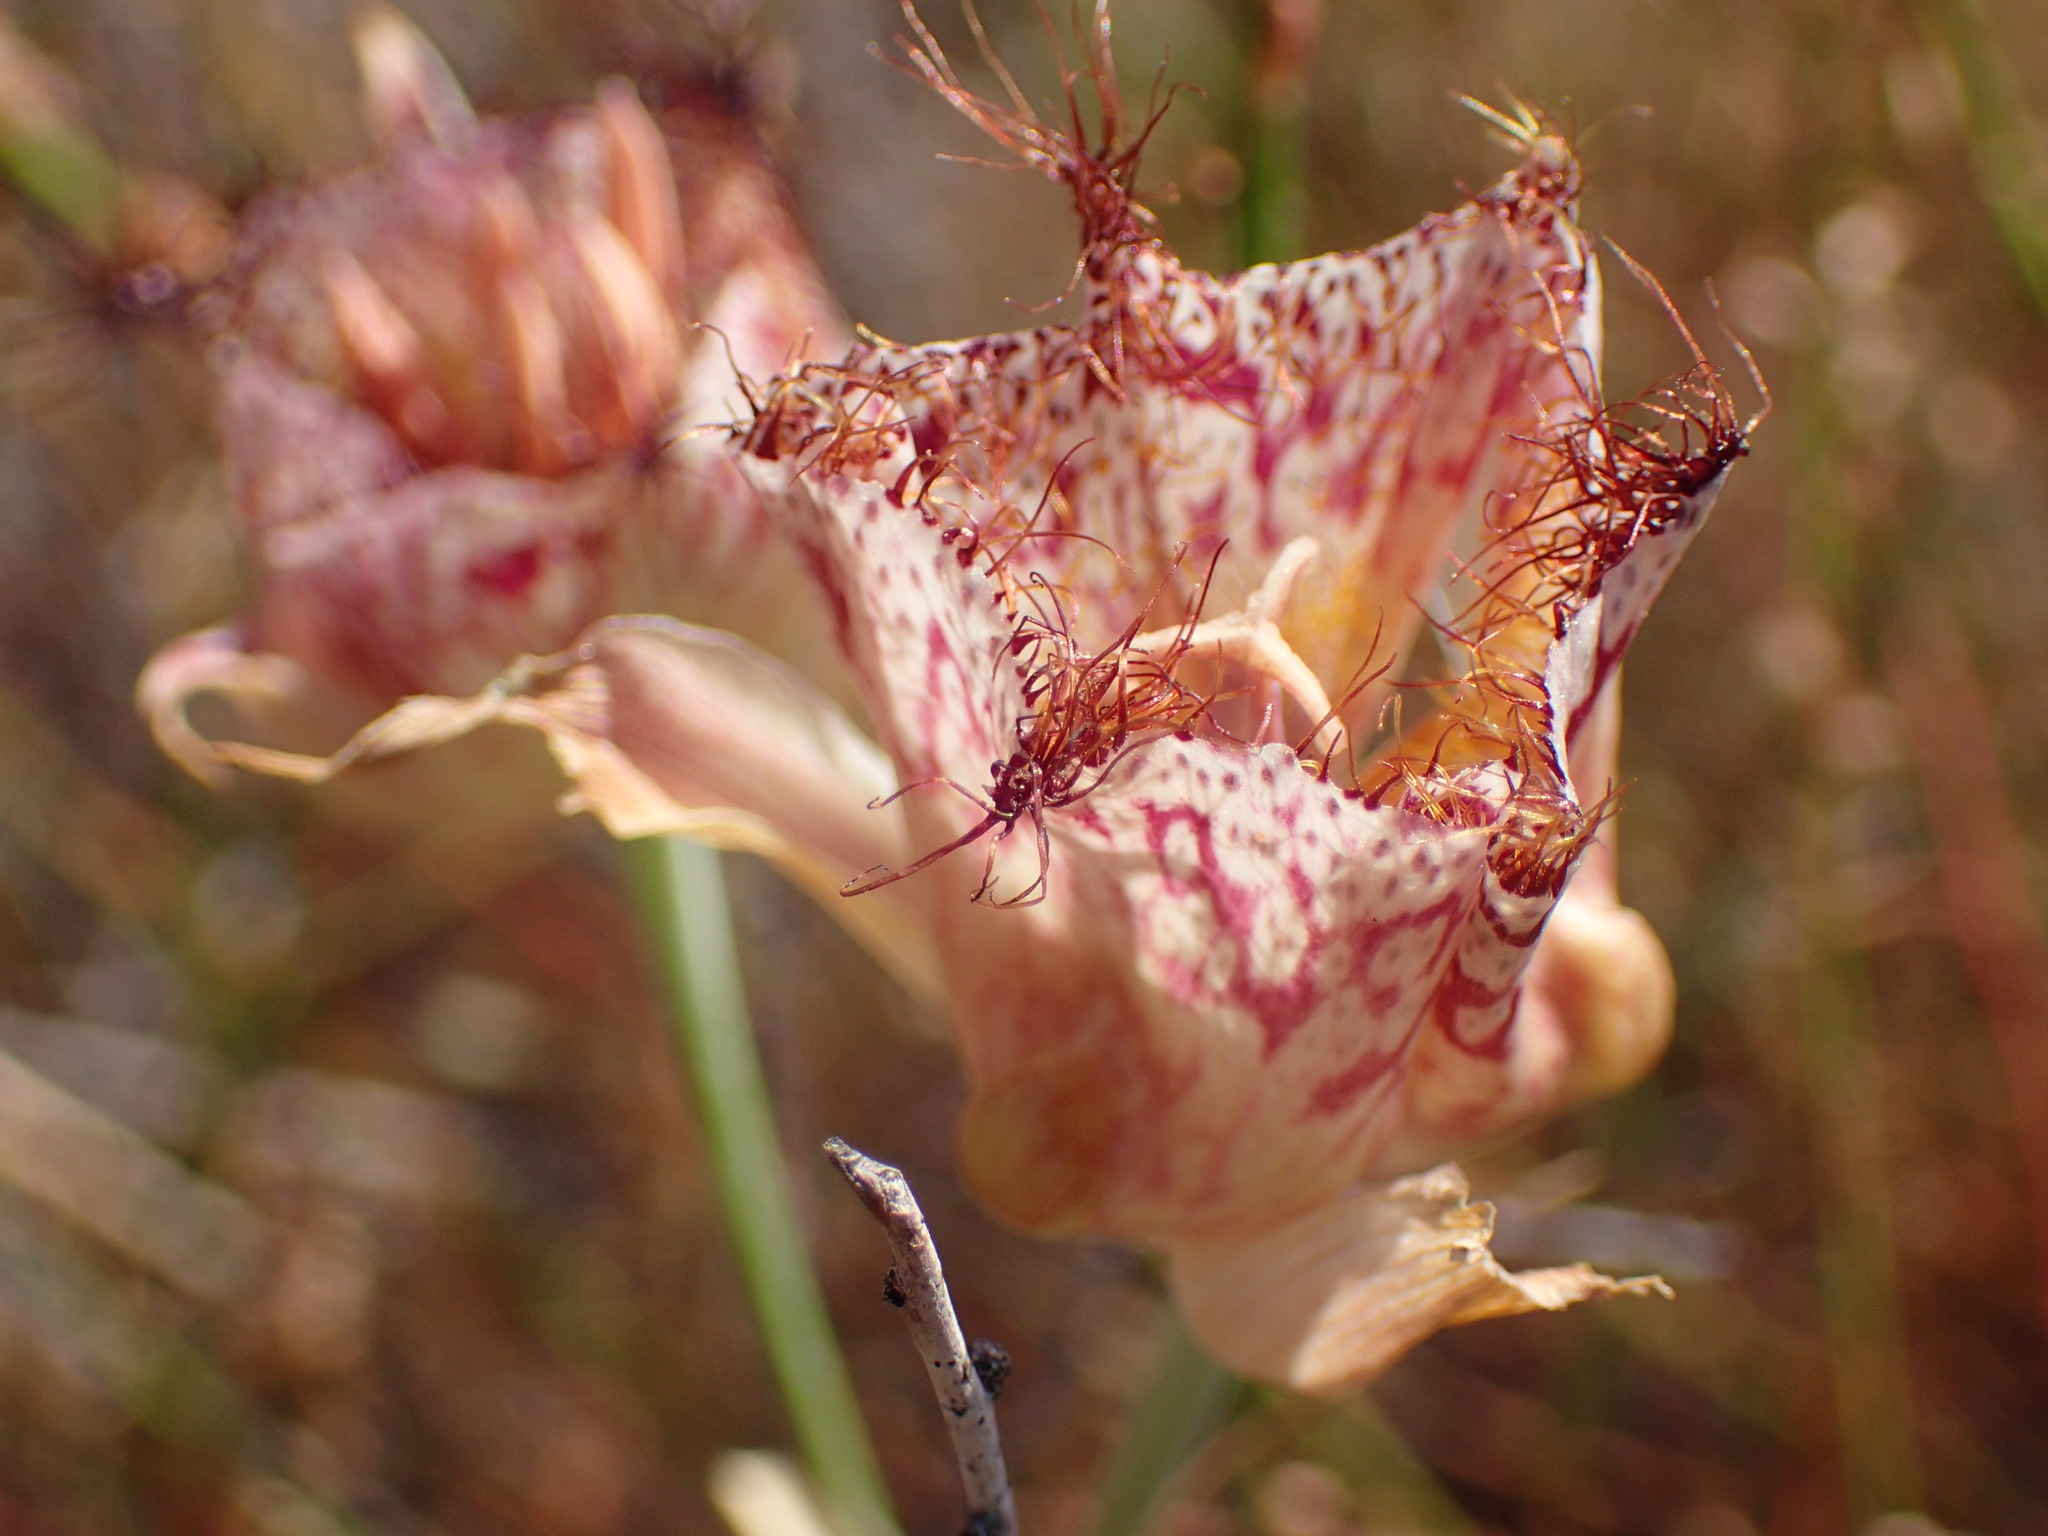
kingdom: Plantae
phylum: Tracheophyta
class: Liliopsida
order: Liliales
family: Liliaceae
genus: Calochortus
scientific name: Calochortus fimbriatus
